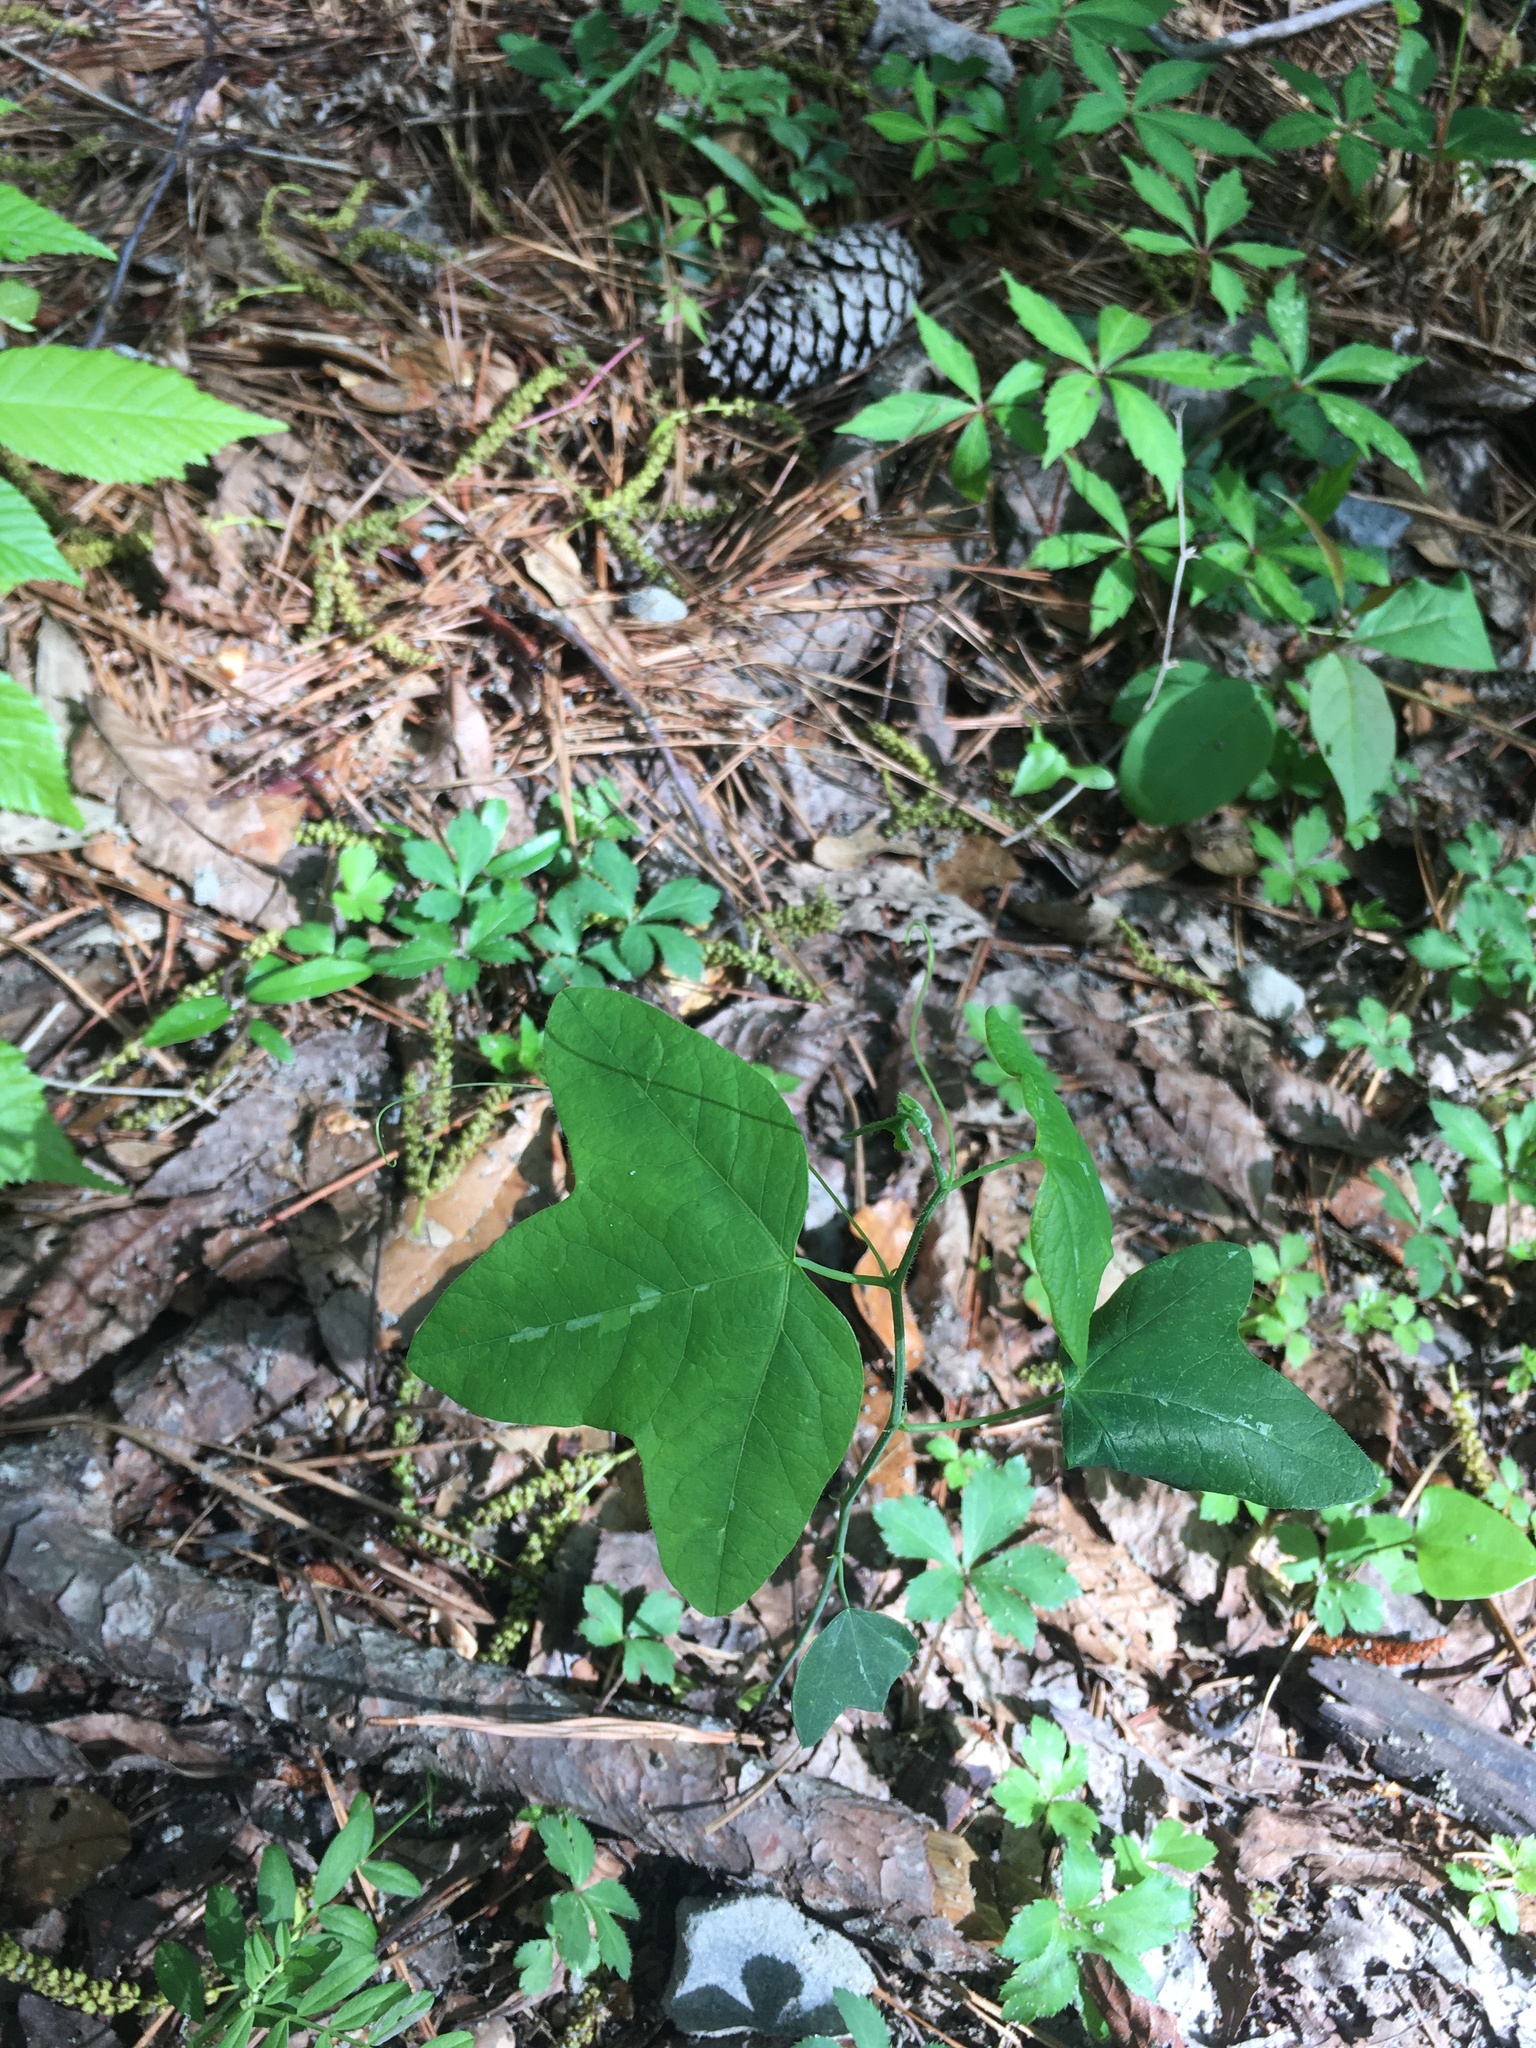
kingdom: Plantae
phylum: Tracheophyta
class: Magnoliopsida
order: Malpighiales
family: Passifloraceae
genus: Passiflora
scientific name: Passiflora lutea
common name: Yellow passionflower
